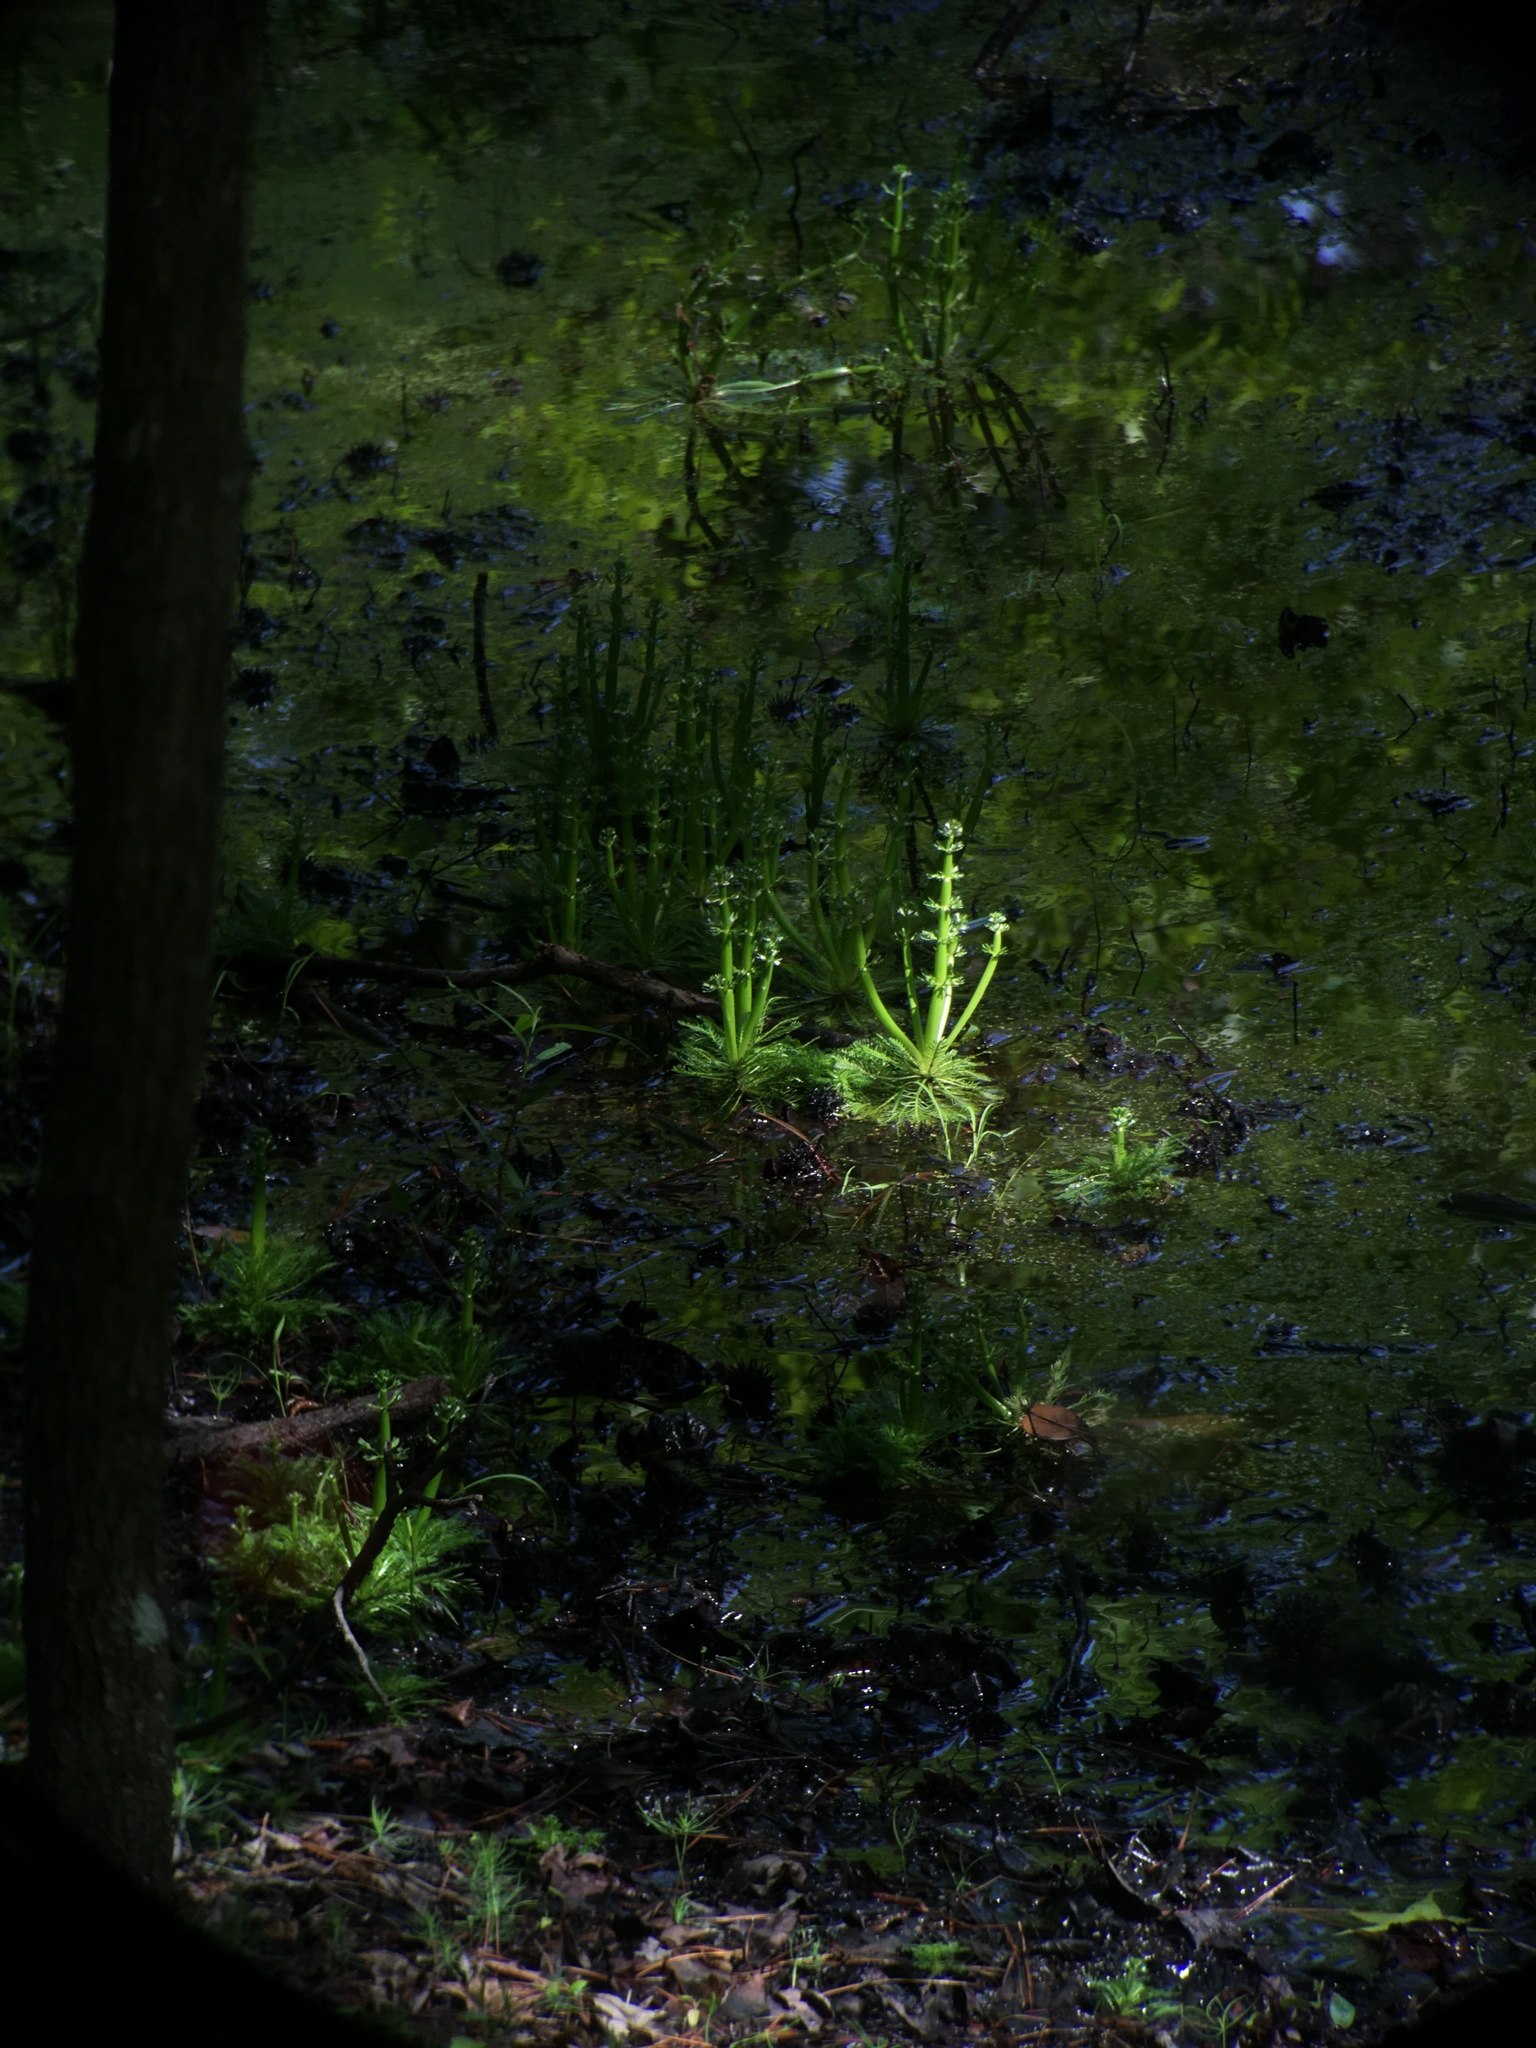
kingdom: Plantae
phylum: Tracheophyta
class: Magnoliopsida
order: Ericales
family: Primulaceae
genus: Hottonia
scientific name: Hottonia inflata
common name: American featherfoil
